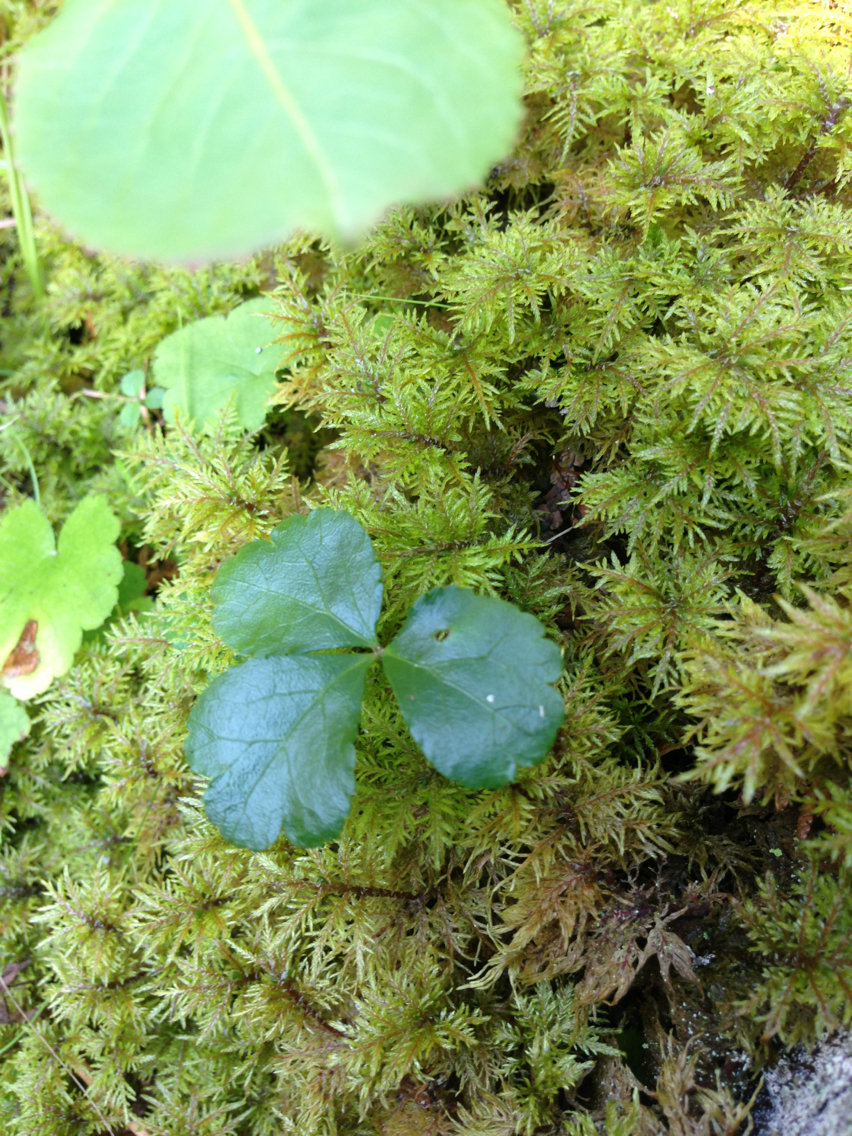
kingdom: Plantae
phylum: Tracheophyta
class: Magnoliopsida
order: Ranunculales
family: Ranunculaceae
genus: Coptis
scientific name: Coptis trifolia
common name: Canker-root
